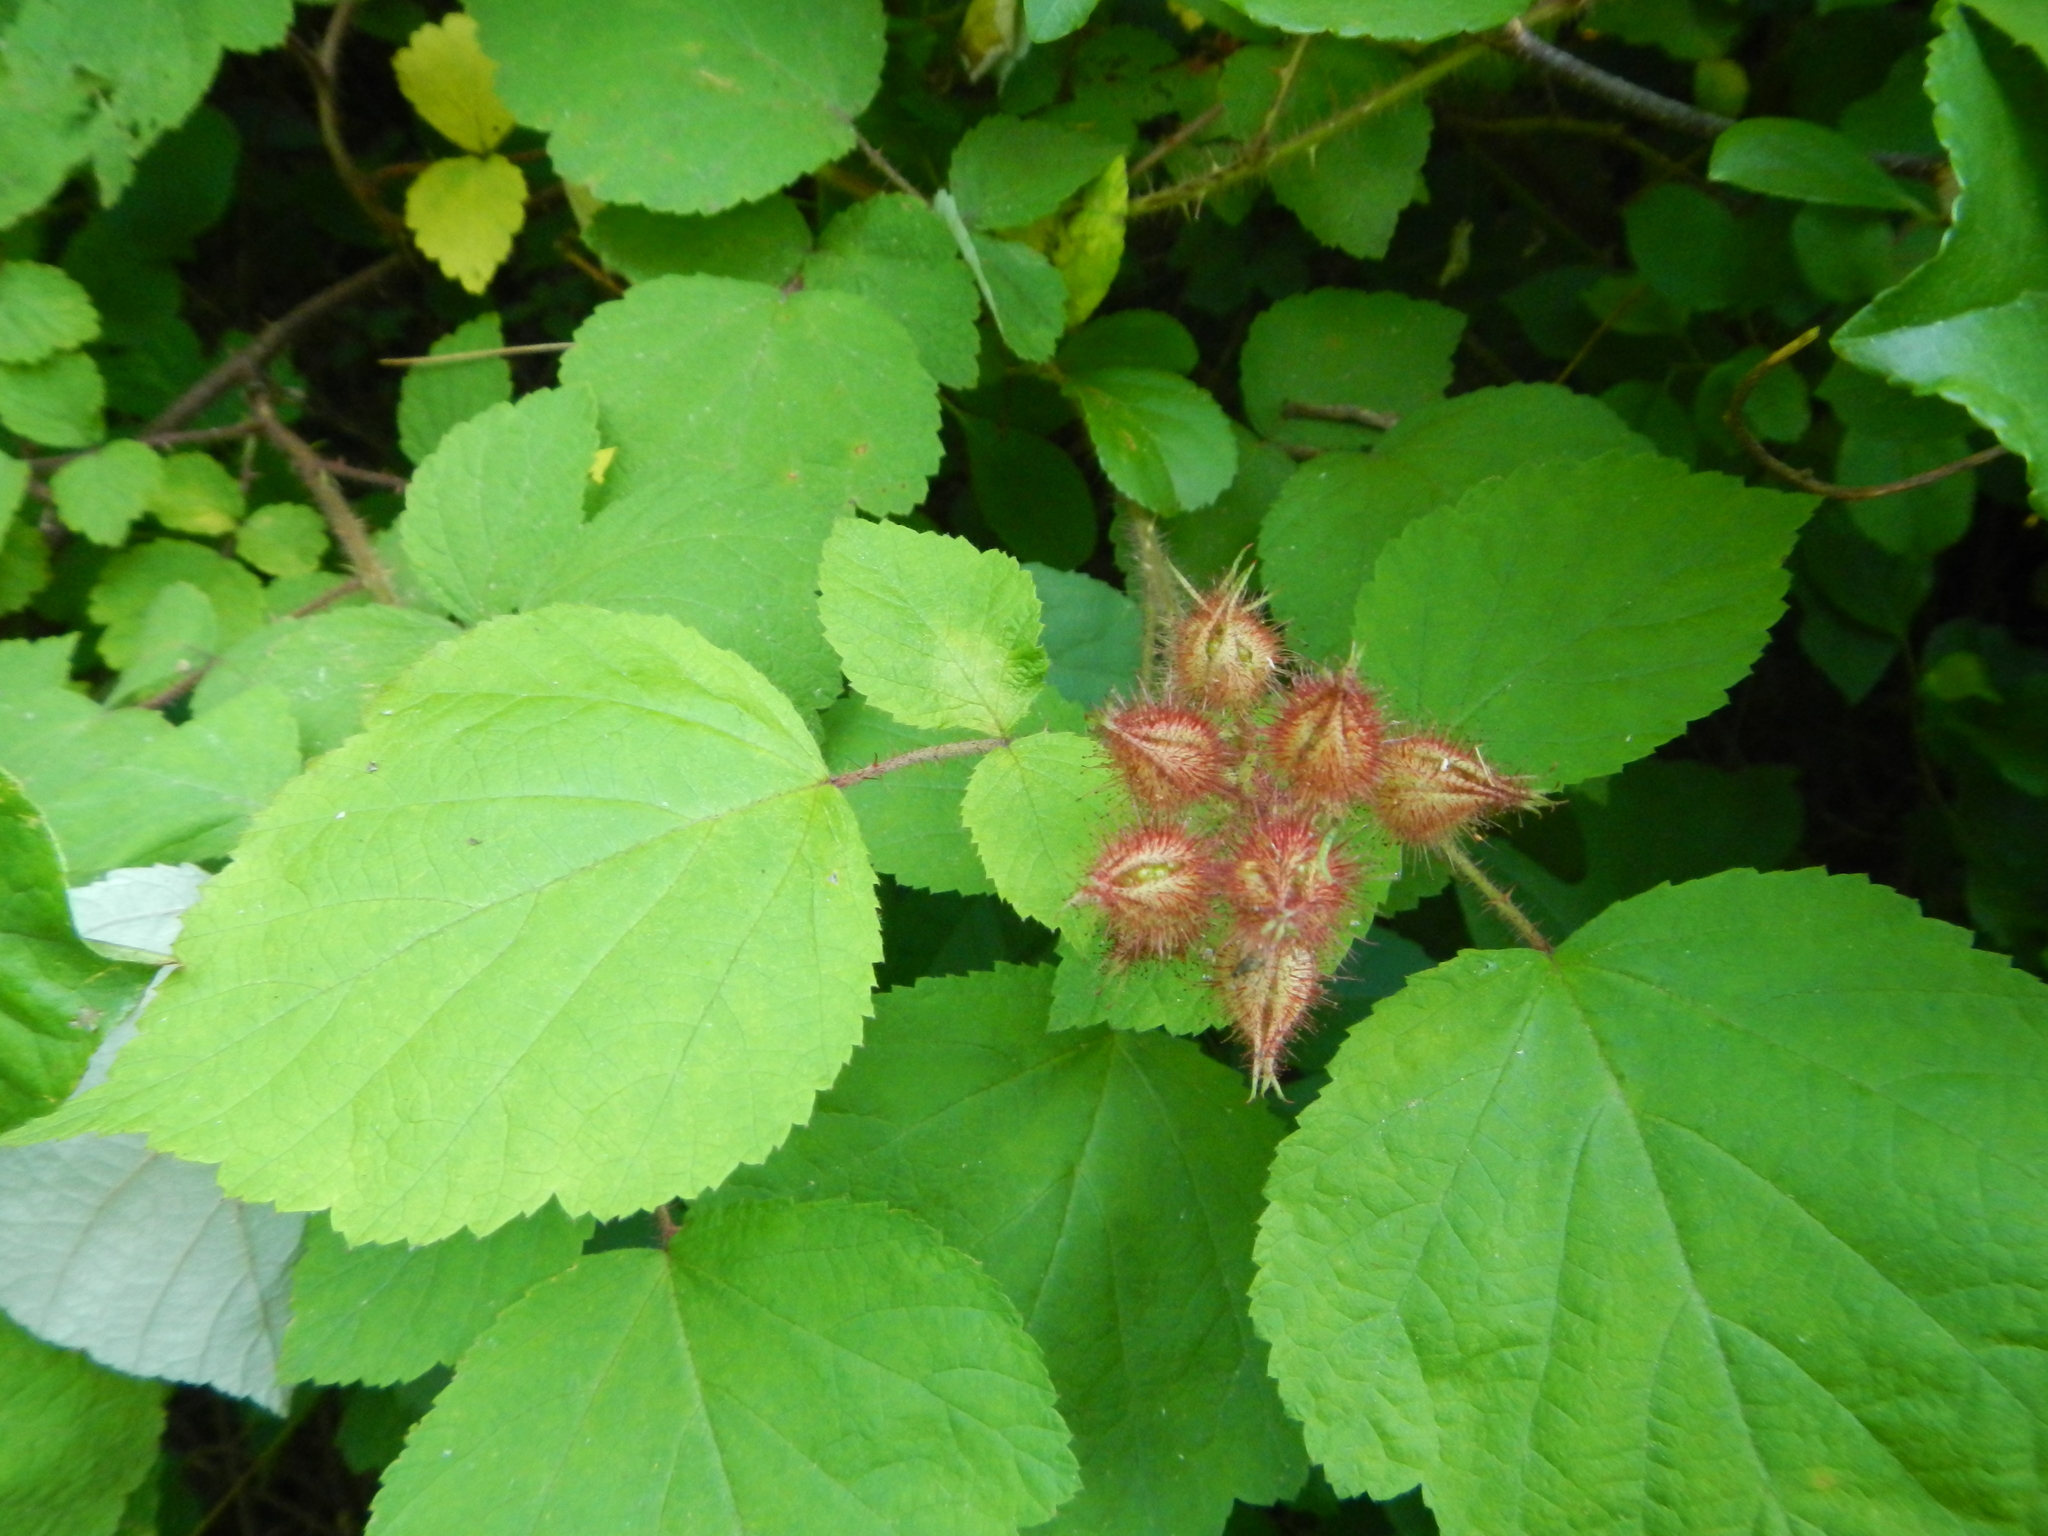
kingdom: Plantae
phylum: Tracheophyta
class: Magnoliopsida
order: Rosales
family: Rosaceae
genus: Rubus
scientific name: Rubus phoenicolasius
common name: Japanese wineberry
